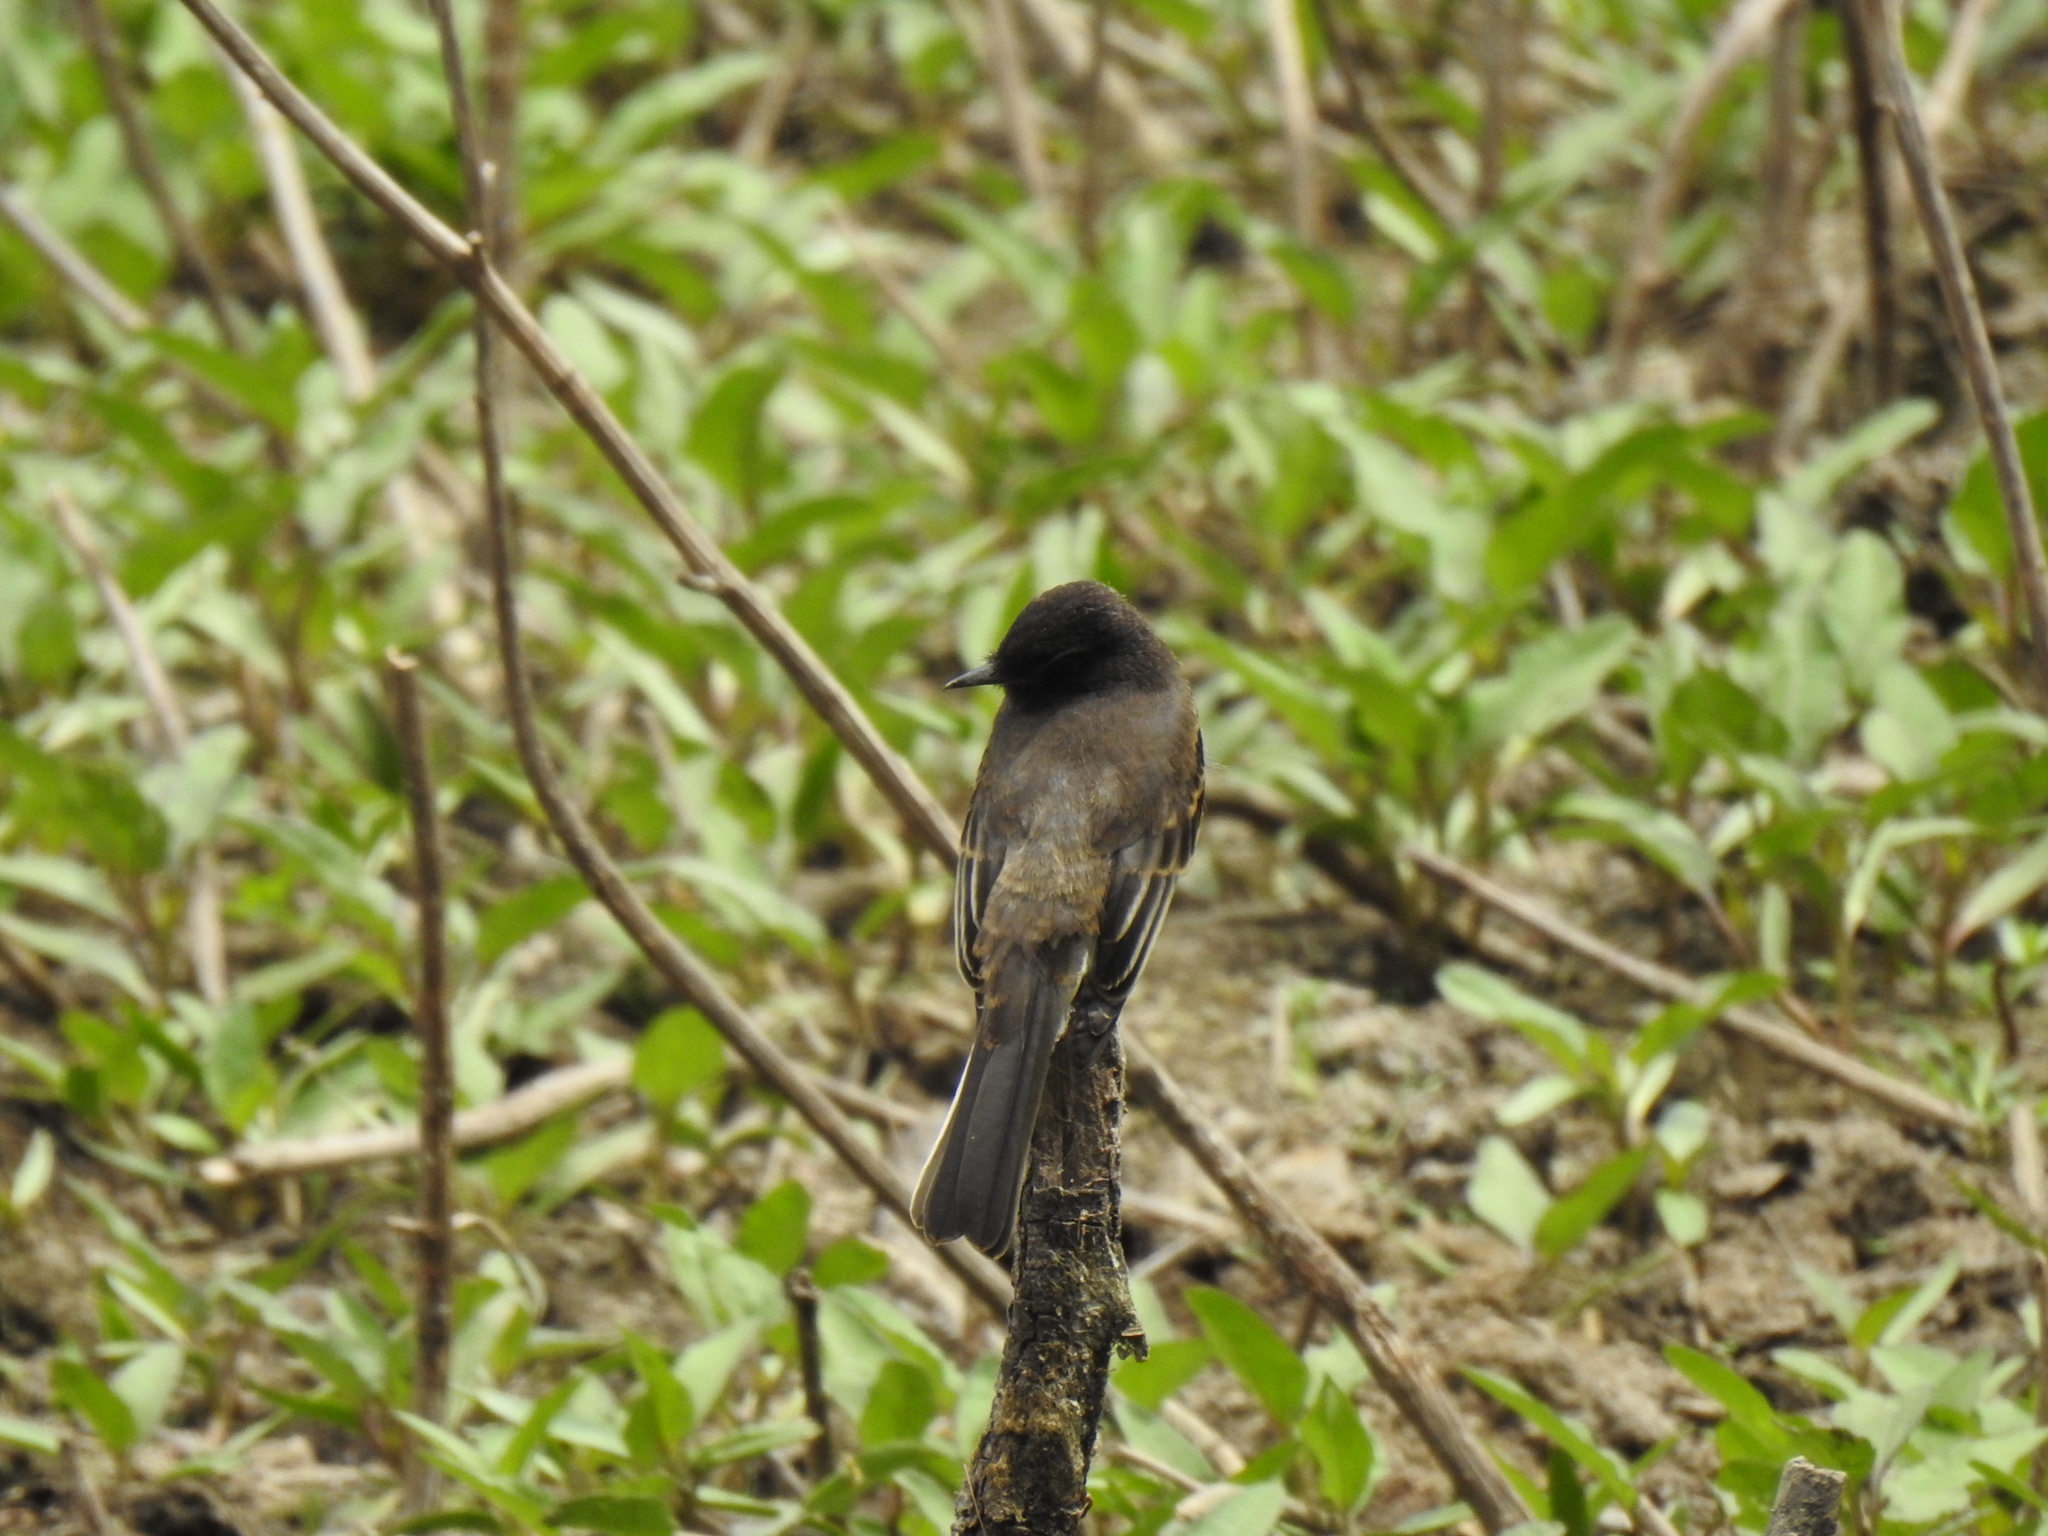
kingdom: Animalia
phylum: Chordata
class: Aves
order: Passeriformes
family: Tyrannidae
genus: Sayornis
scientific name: Sayornis nigricans
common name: Black phoebe
